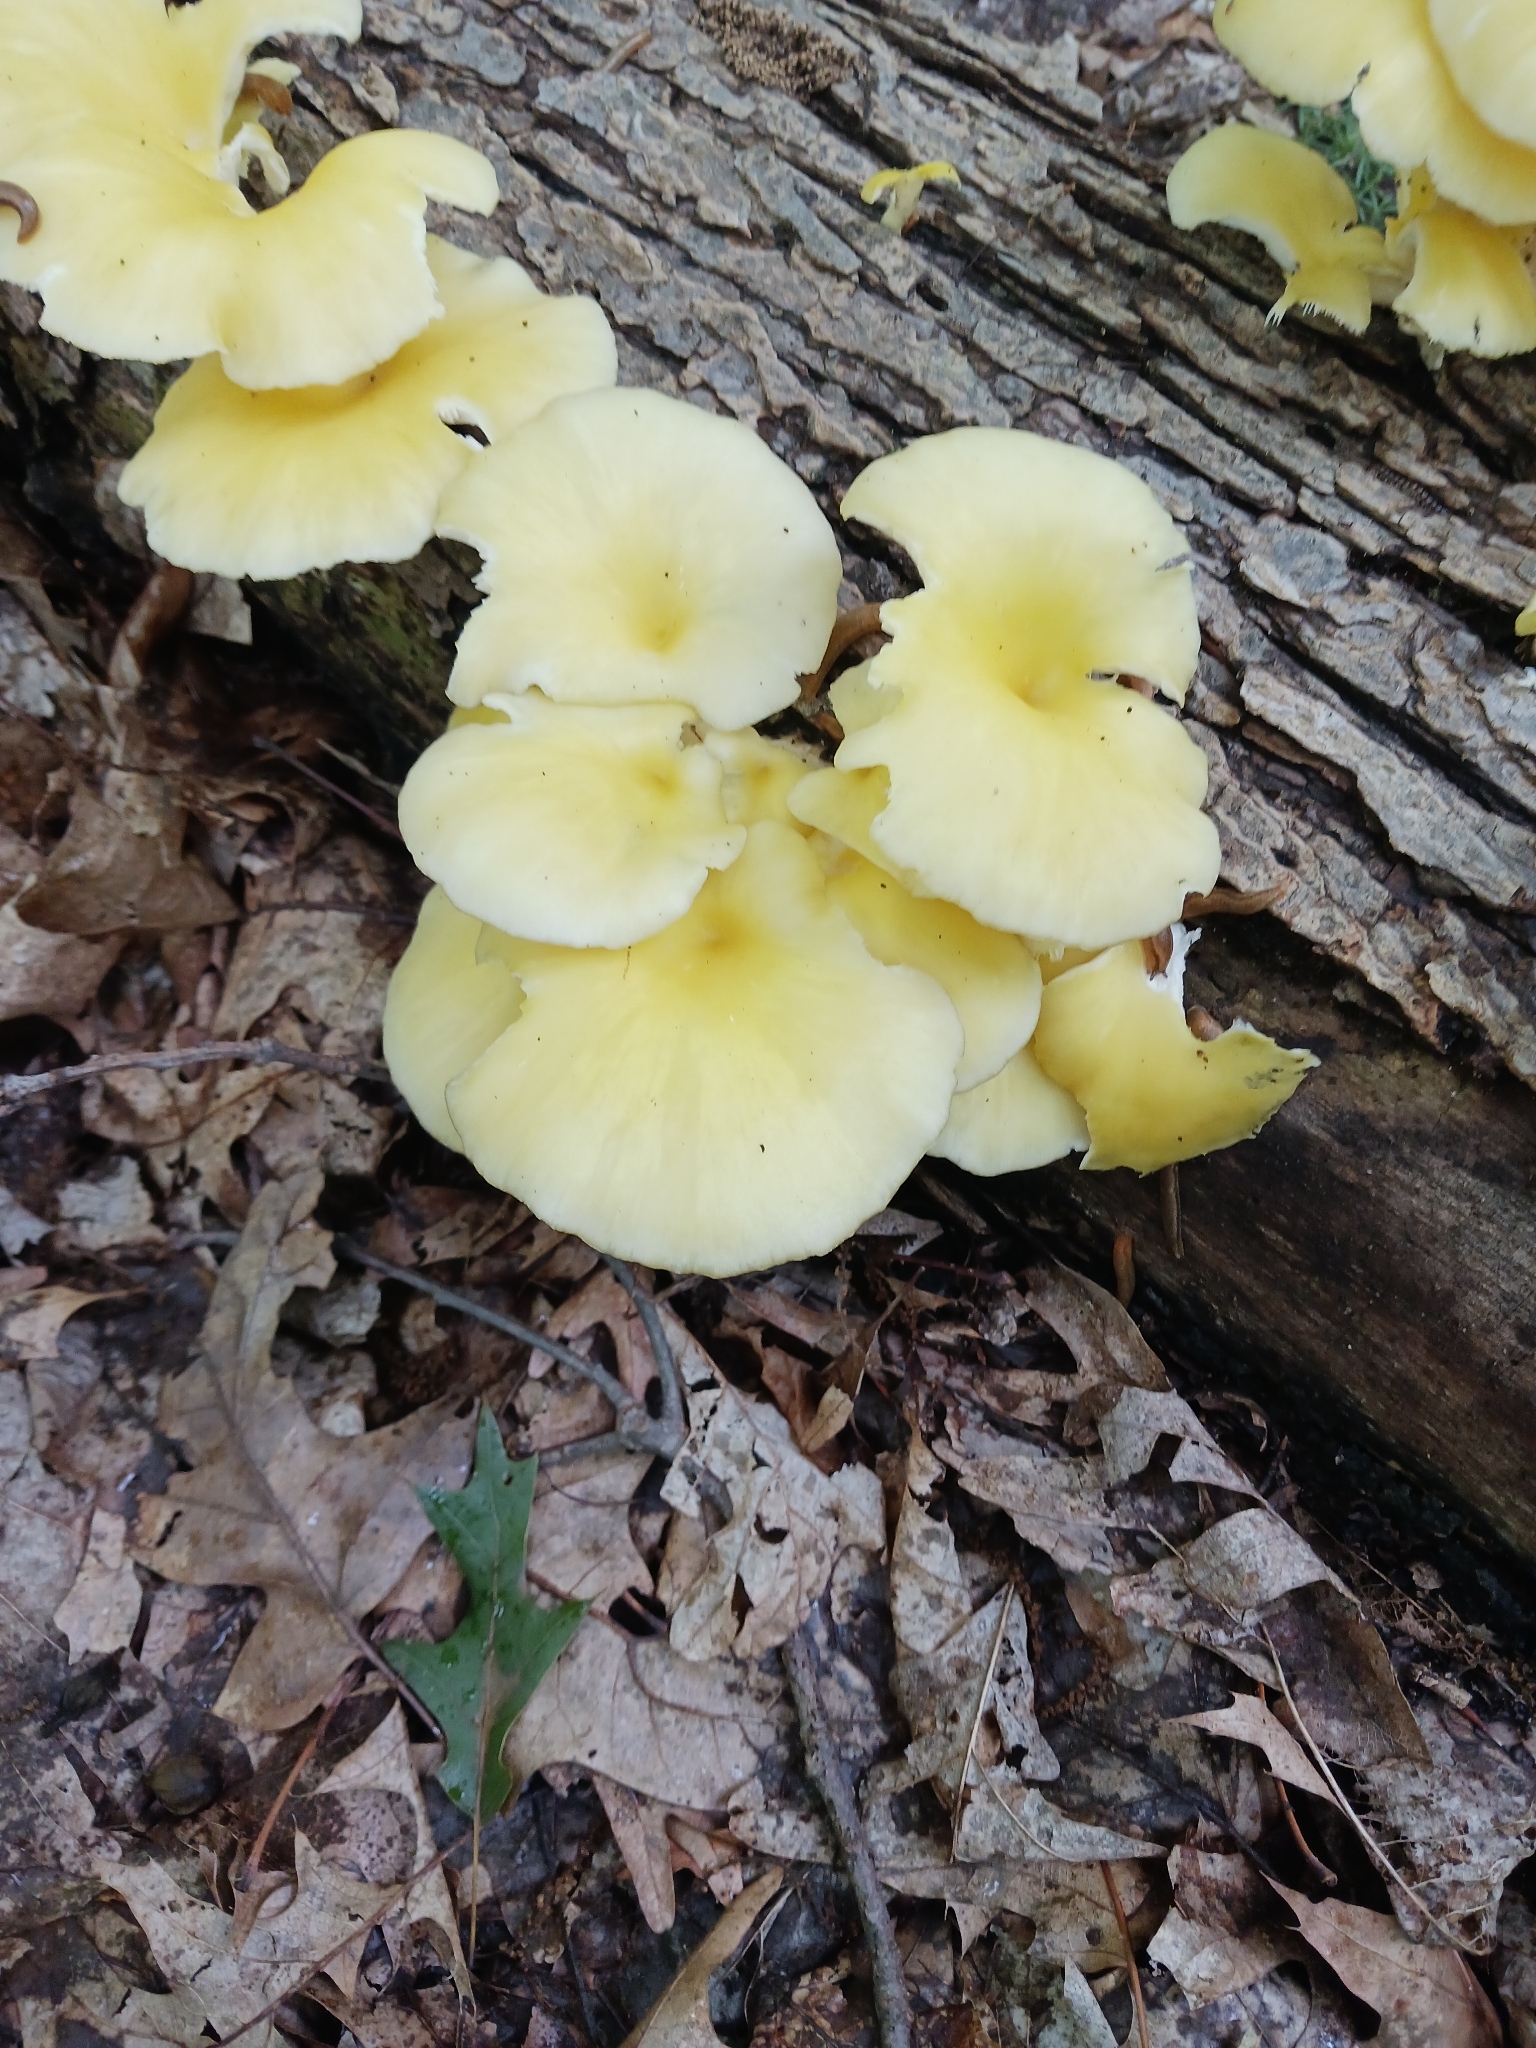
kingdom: Fungi
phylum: Basidiomycota
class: Agaricomycetes
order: Agaricales
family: Pleurotaceae
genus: Pleurotus
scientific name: Pleurotus citrinopileatus
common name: Golden oyster mushroom
